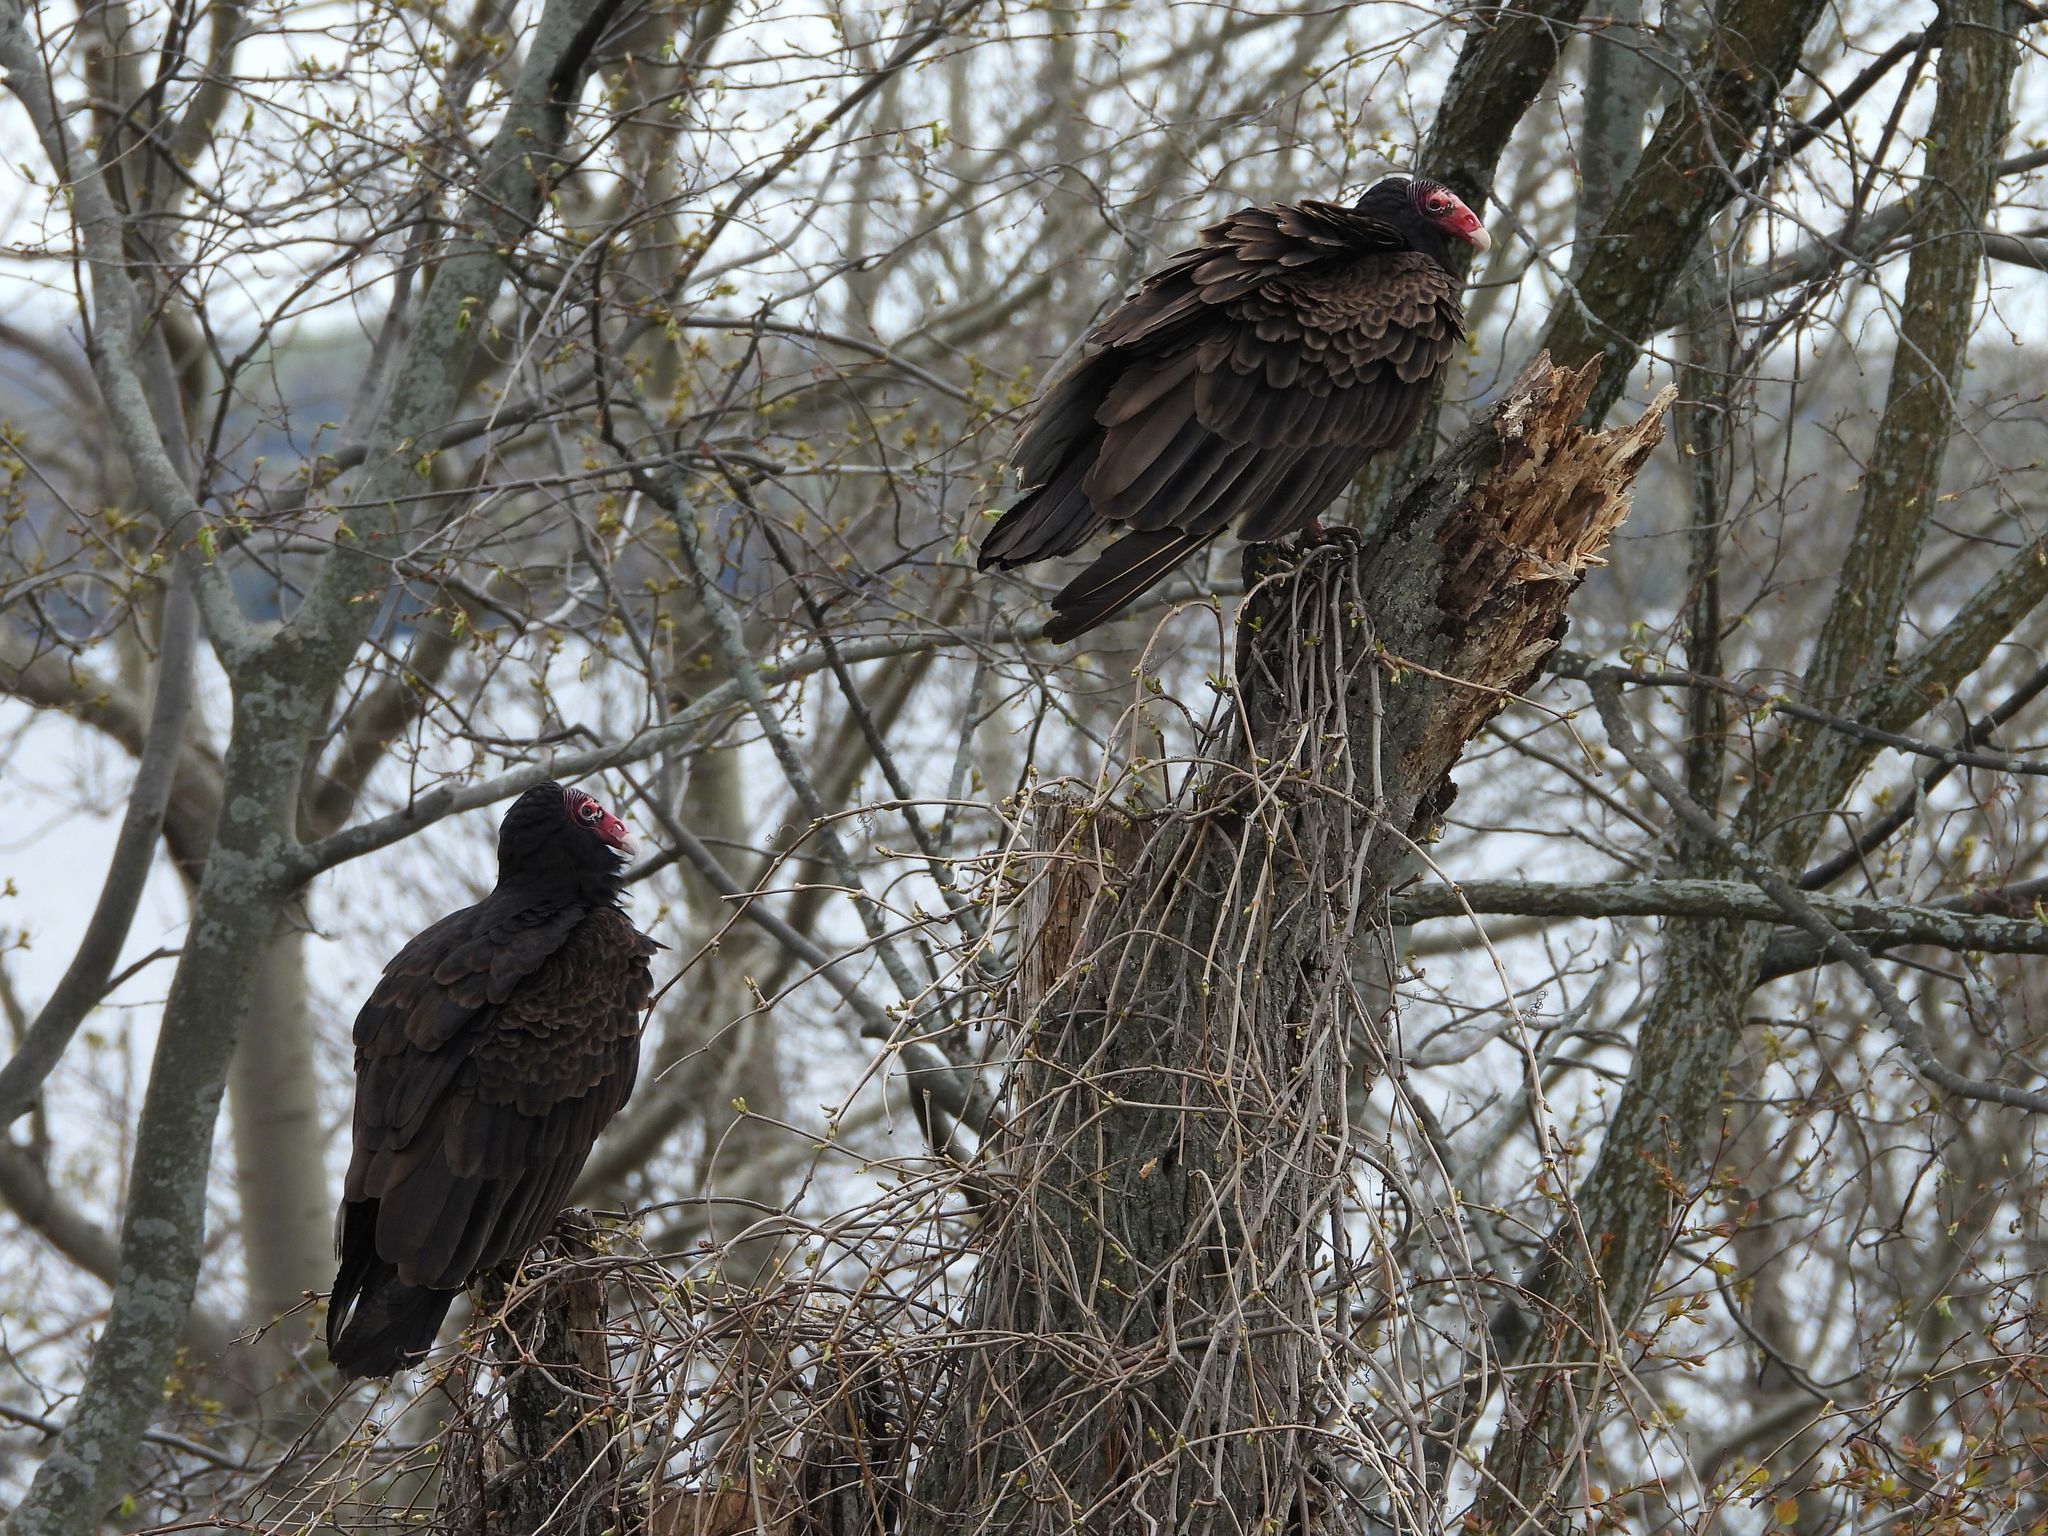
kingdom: Animalia
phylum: Chordata
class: Aves
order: Accipitriformes
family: Cathartidae
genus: Cathartes
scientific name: Cathartes aura
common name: Turkey vulture
